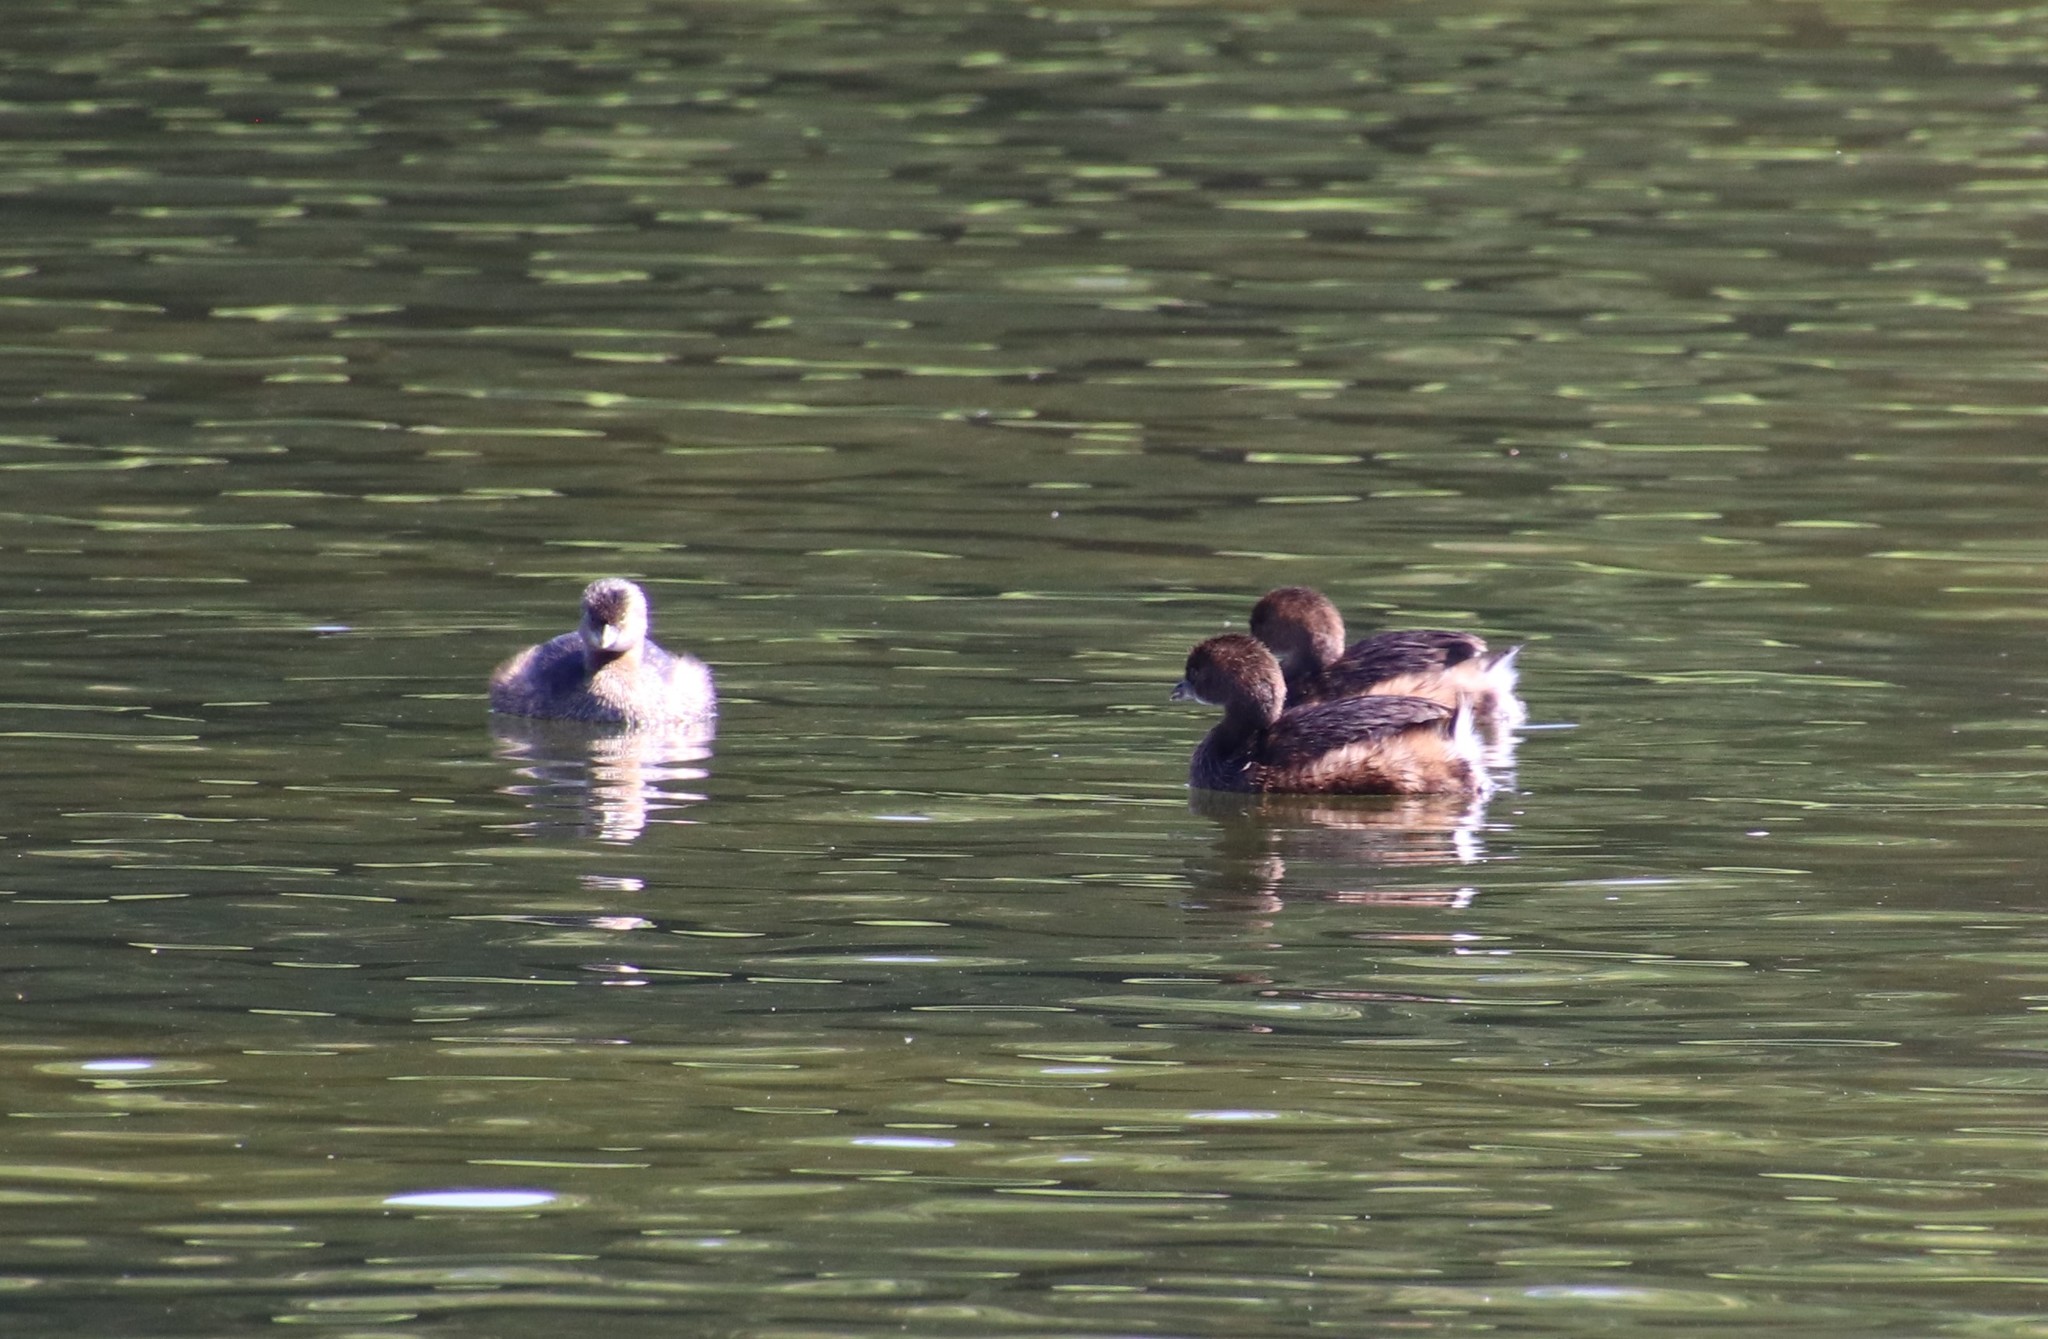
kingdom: Animalia
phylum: Chordata
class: Aves
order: Podicipediformes
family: Podicipedidae
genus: Podilymbus
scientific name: Podilymbus podiceps
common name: Pied-billed grebe
